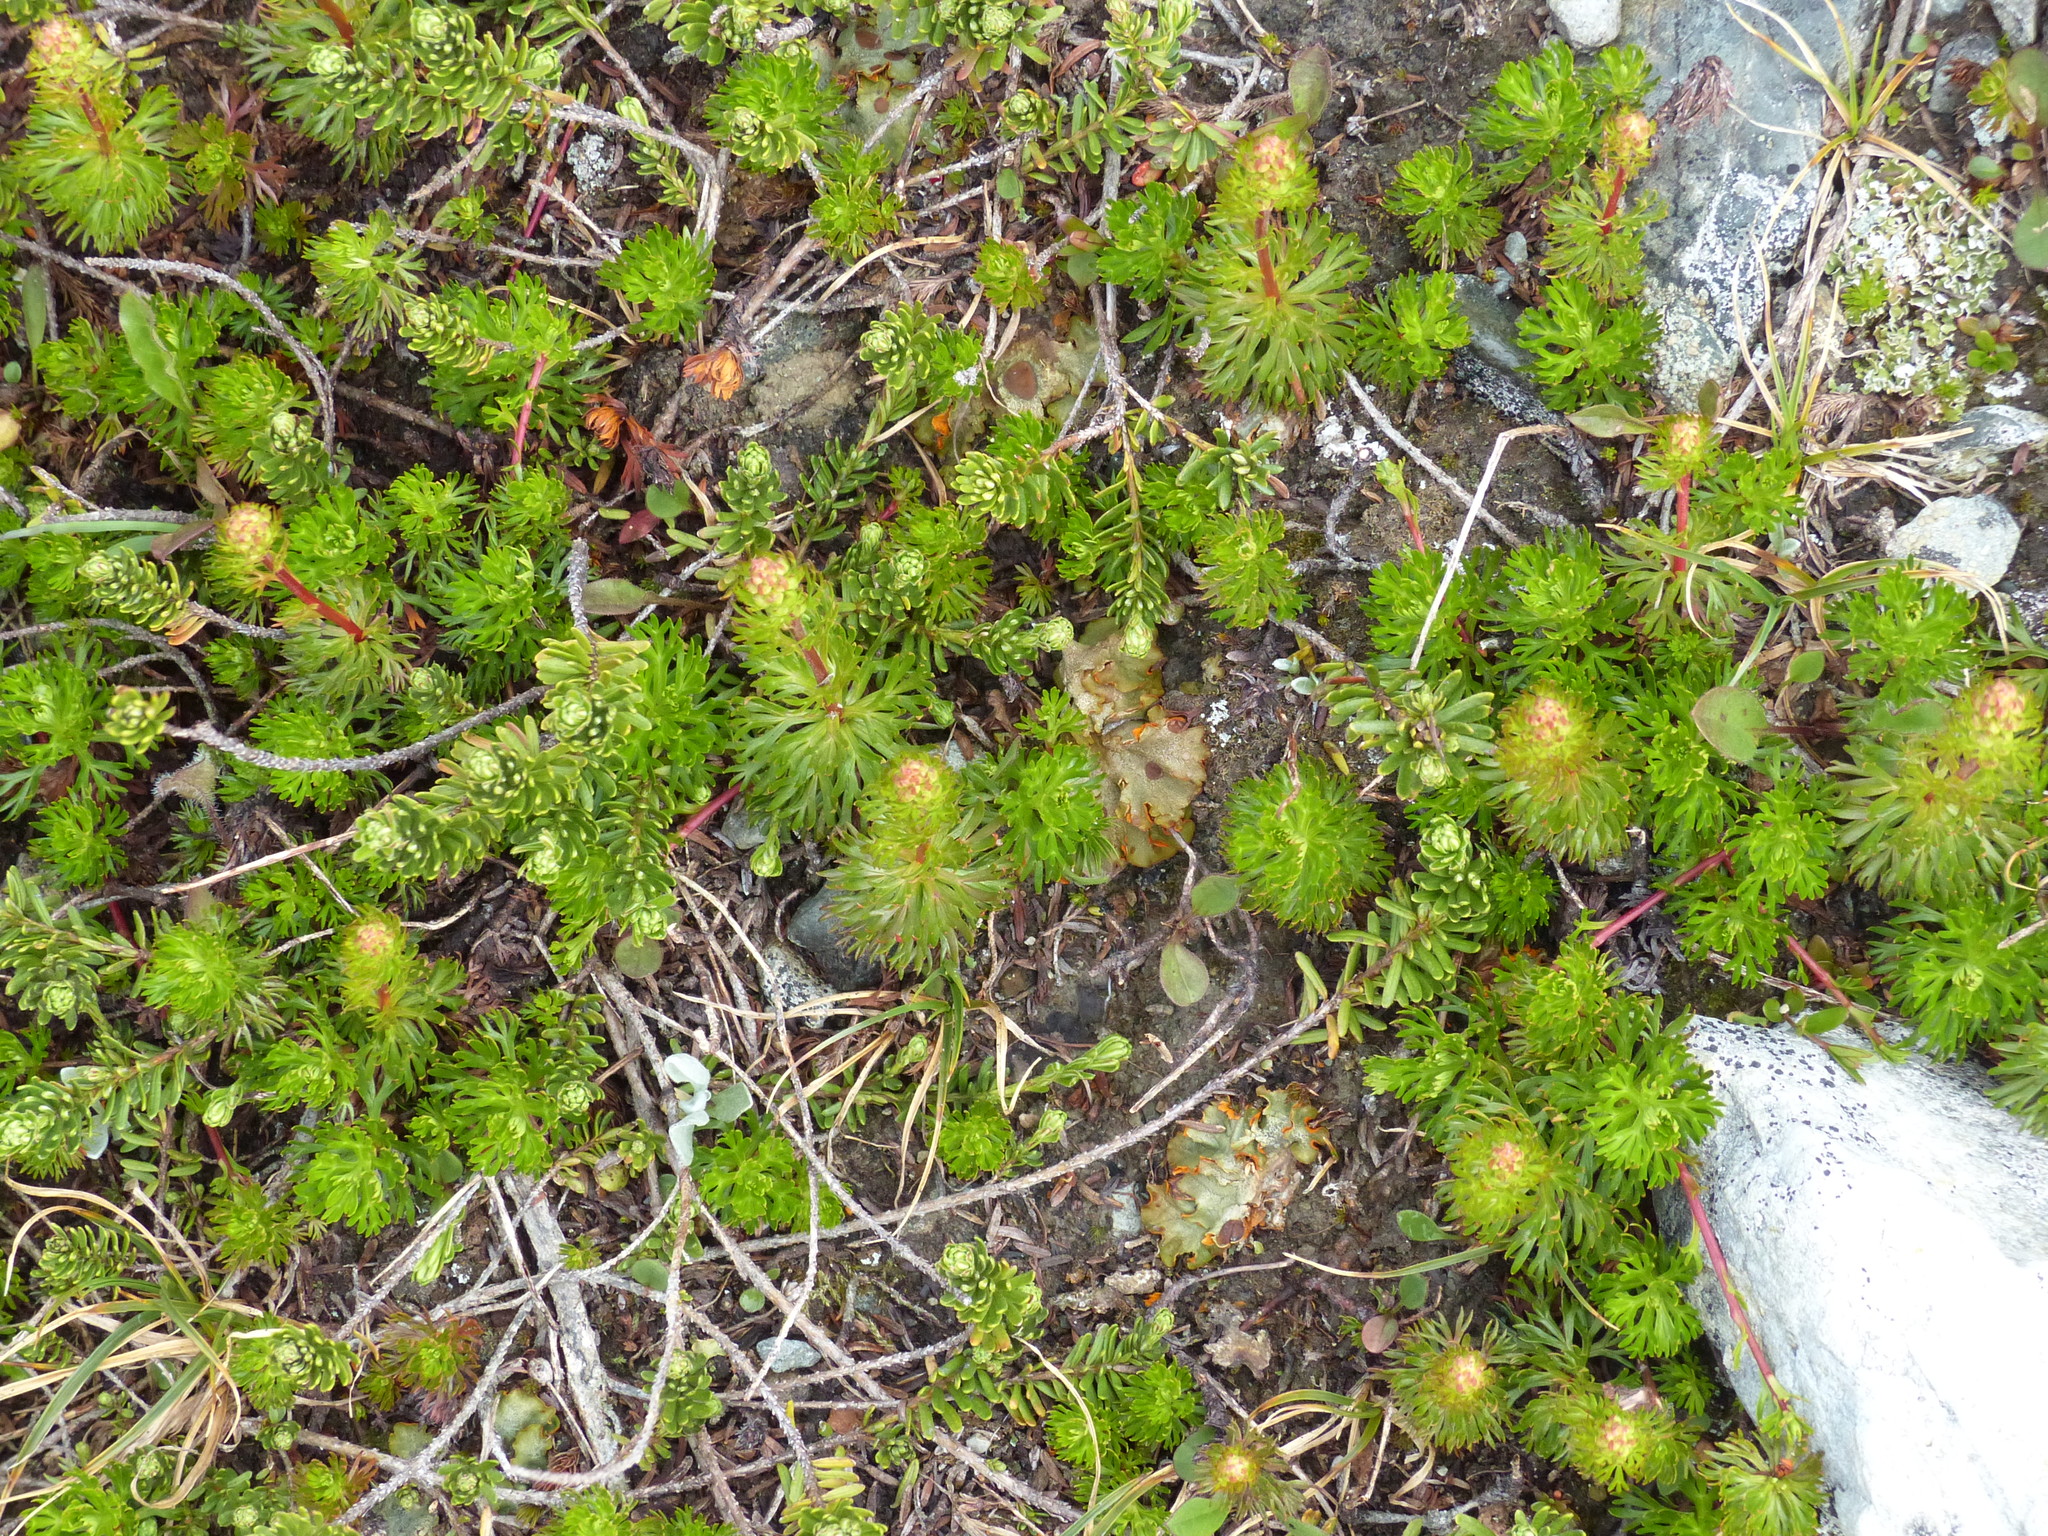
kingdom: Plantae
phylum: Tracheophyta
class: Magnoliopsida
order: Rosales
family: Rosaceae
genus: Luetkea
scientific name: Luetkea pectinata
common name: Partridgefoot
